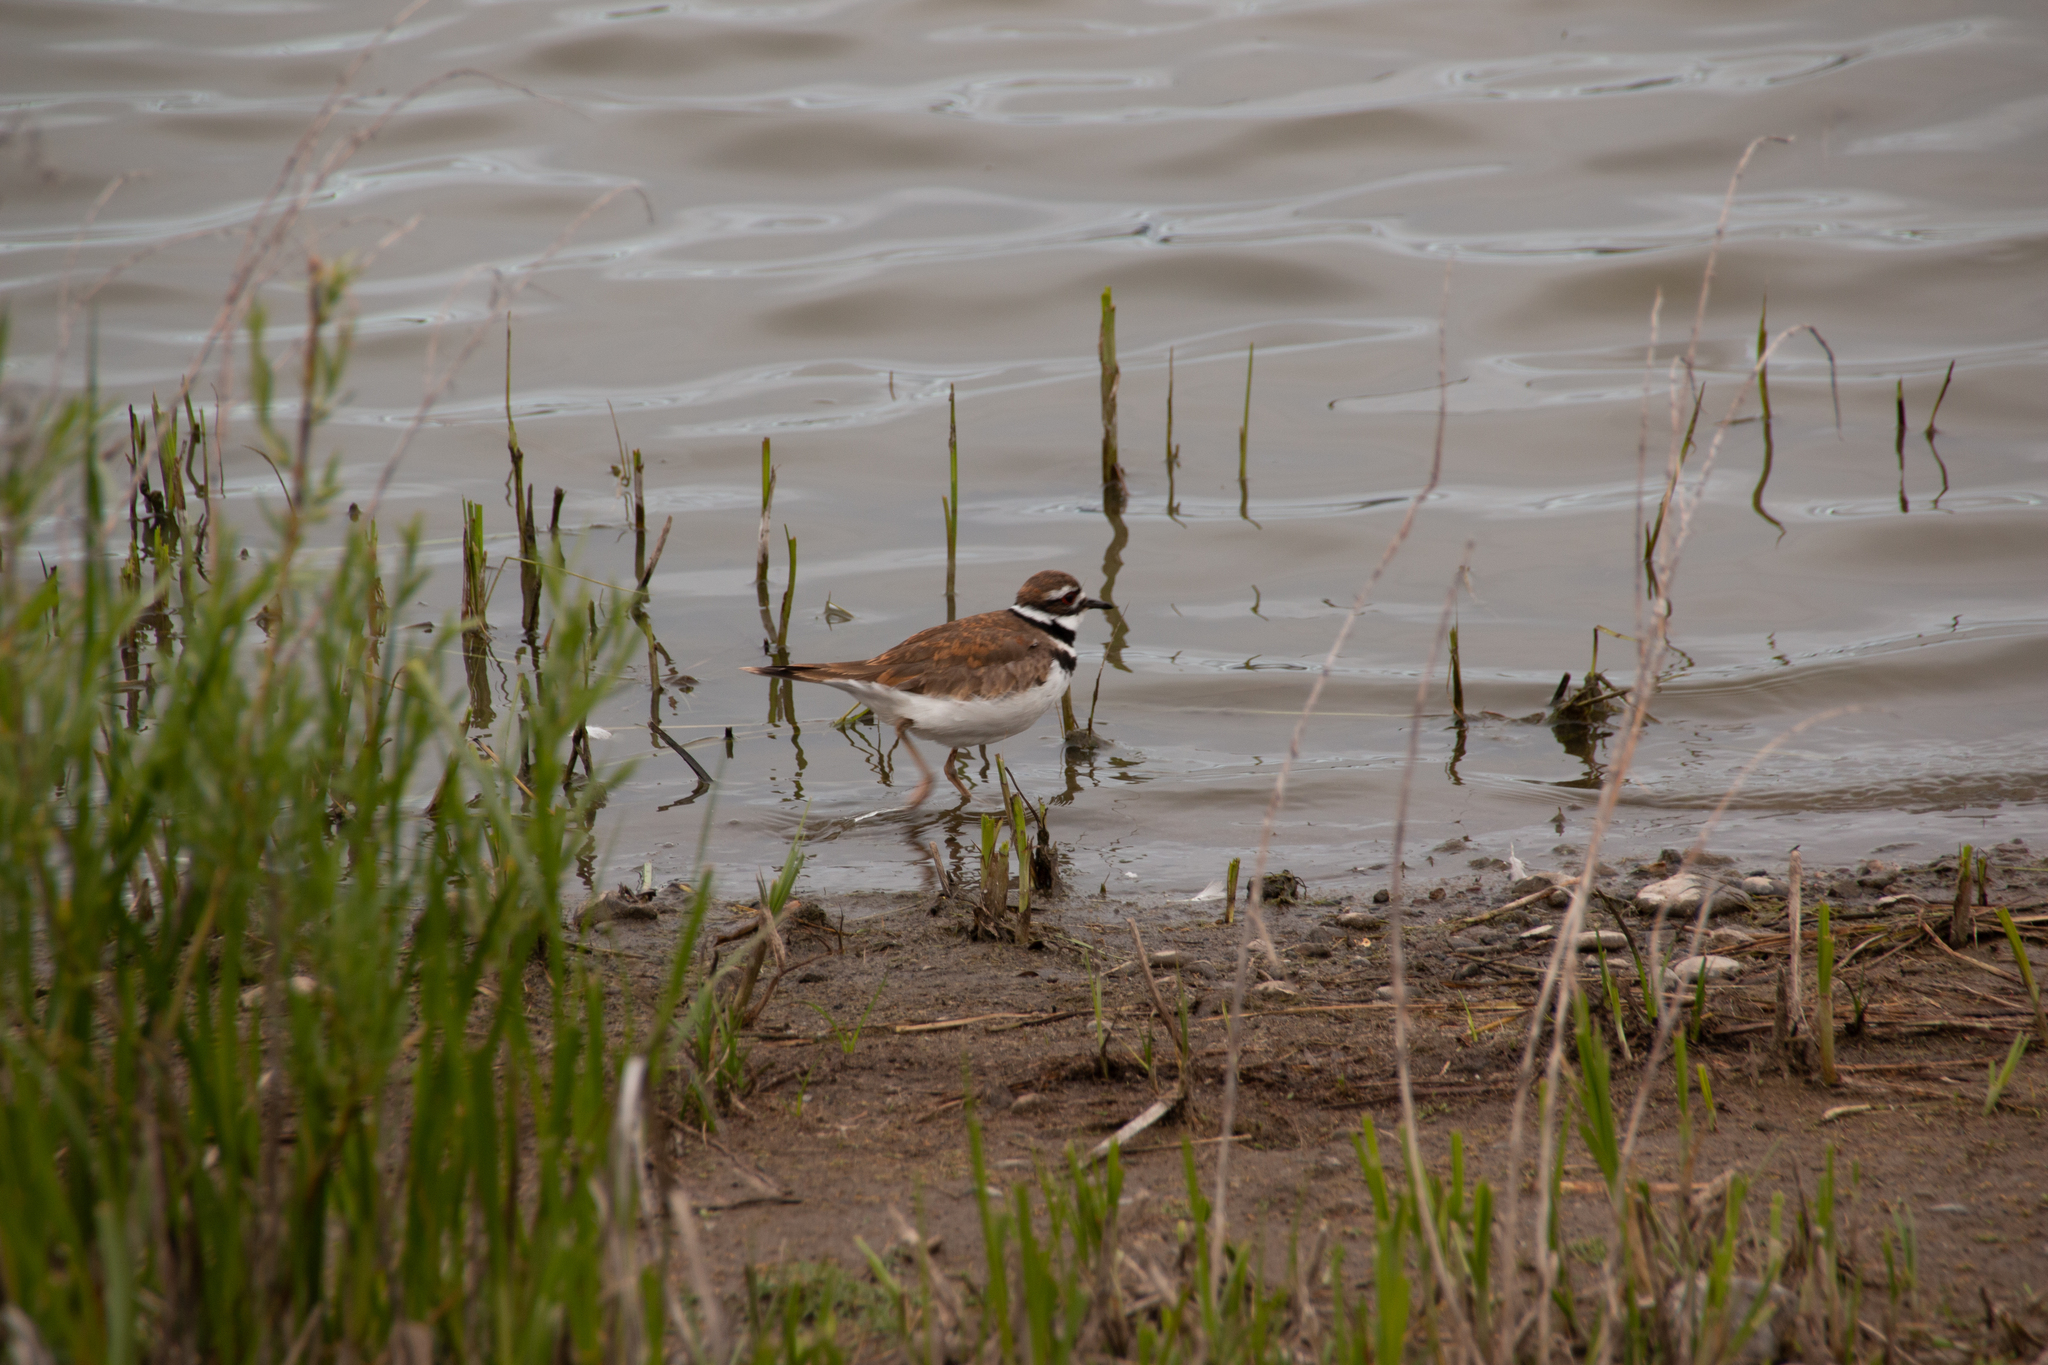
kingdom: Animalia
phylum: Chordata
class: Aves
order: Charadriiformes
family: Charadriidae
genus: Charadrius
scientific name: Charadrius vociferus
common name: Killdeer
